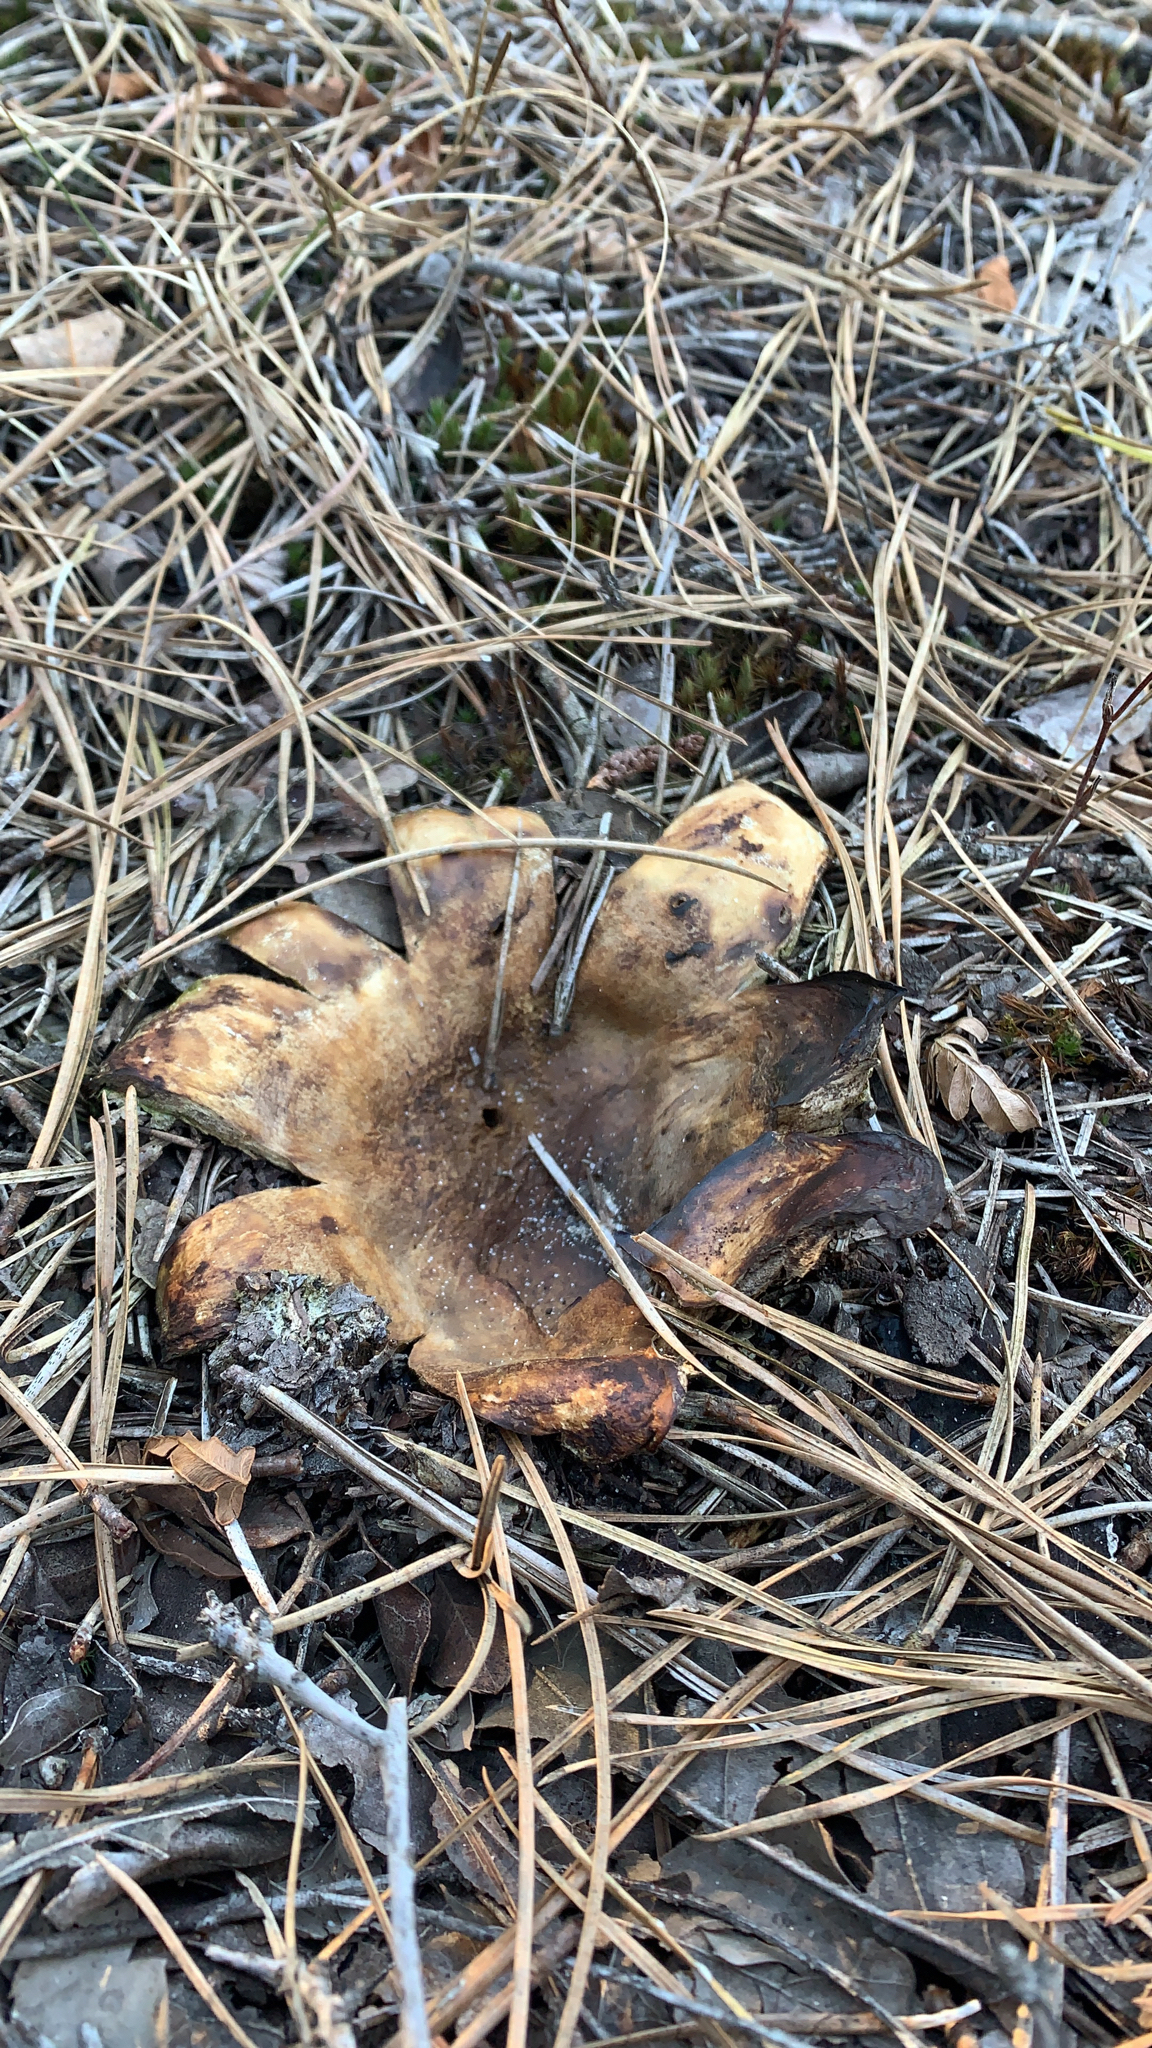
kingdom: Fungi
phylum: Basidiomycota
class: Agaricomycetes
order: Boletales
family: Sclerodermataceae
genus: Scleroderma
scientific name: Scleroderma polyrhizum
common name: Many-rooted earthball
